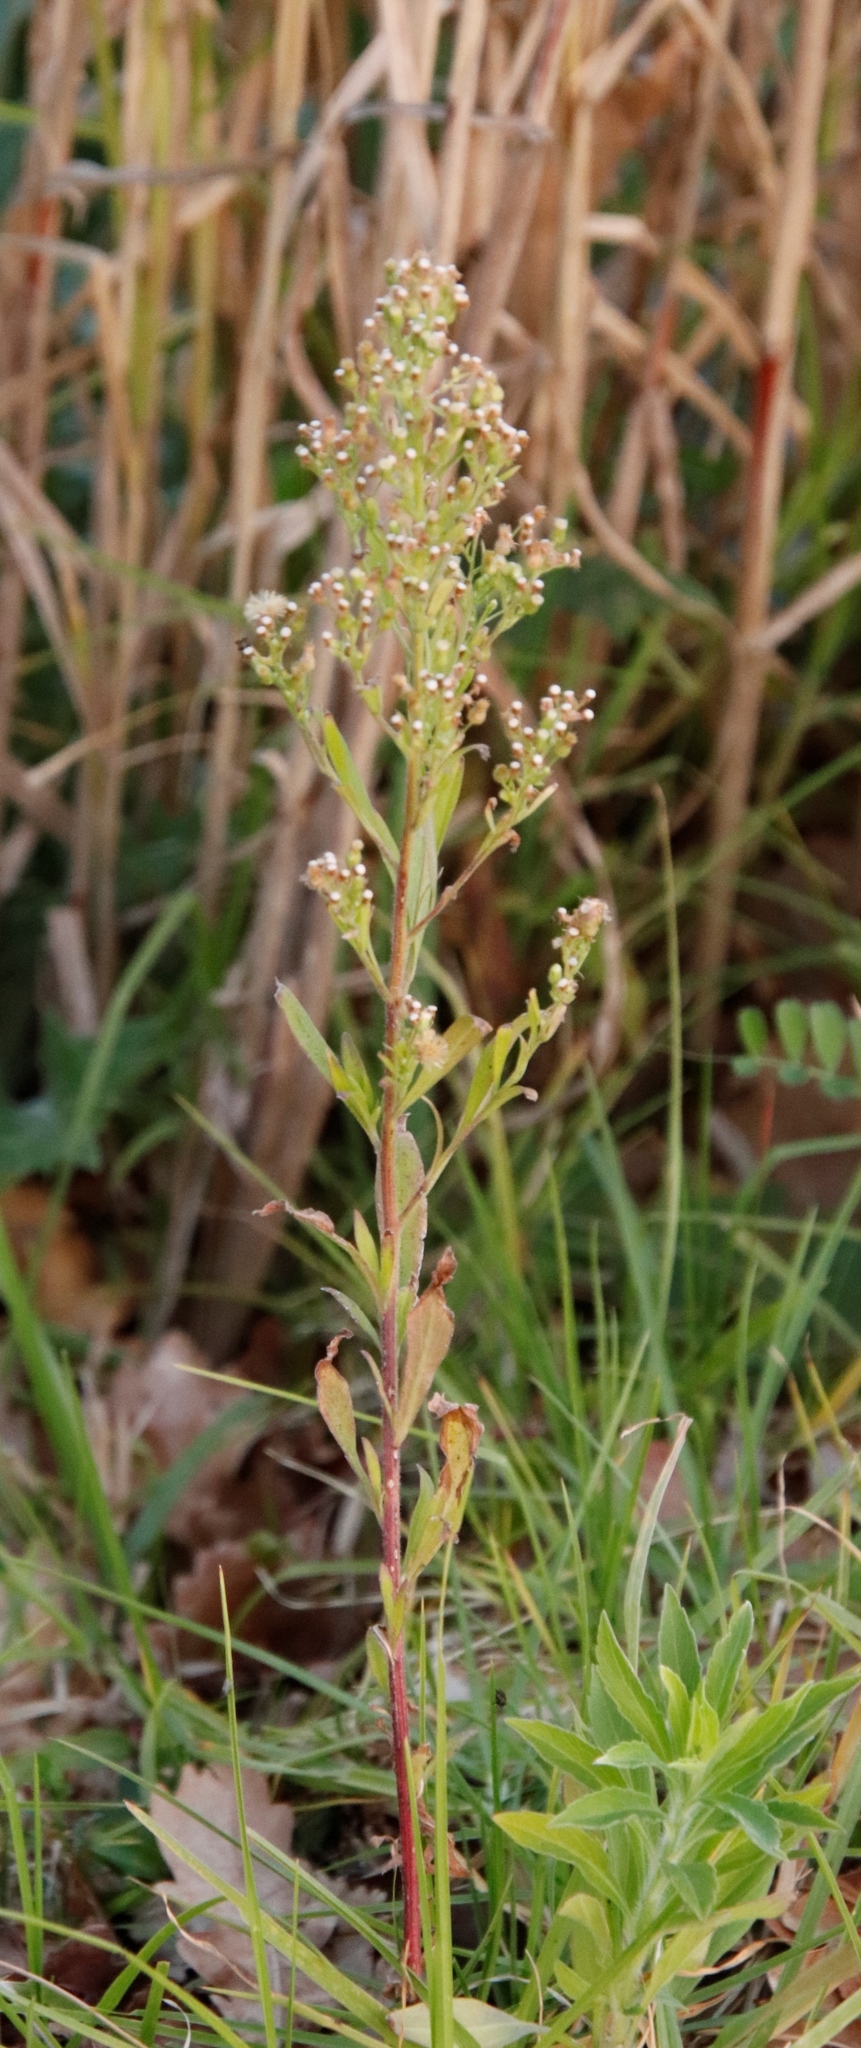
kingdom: Plantae
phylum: Tracheophyta
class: Magnoliopsida
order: Asterales
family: Asteraceae
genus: Erigeron
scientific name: Erigeron sumatrensis
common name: Daisy
